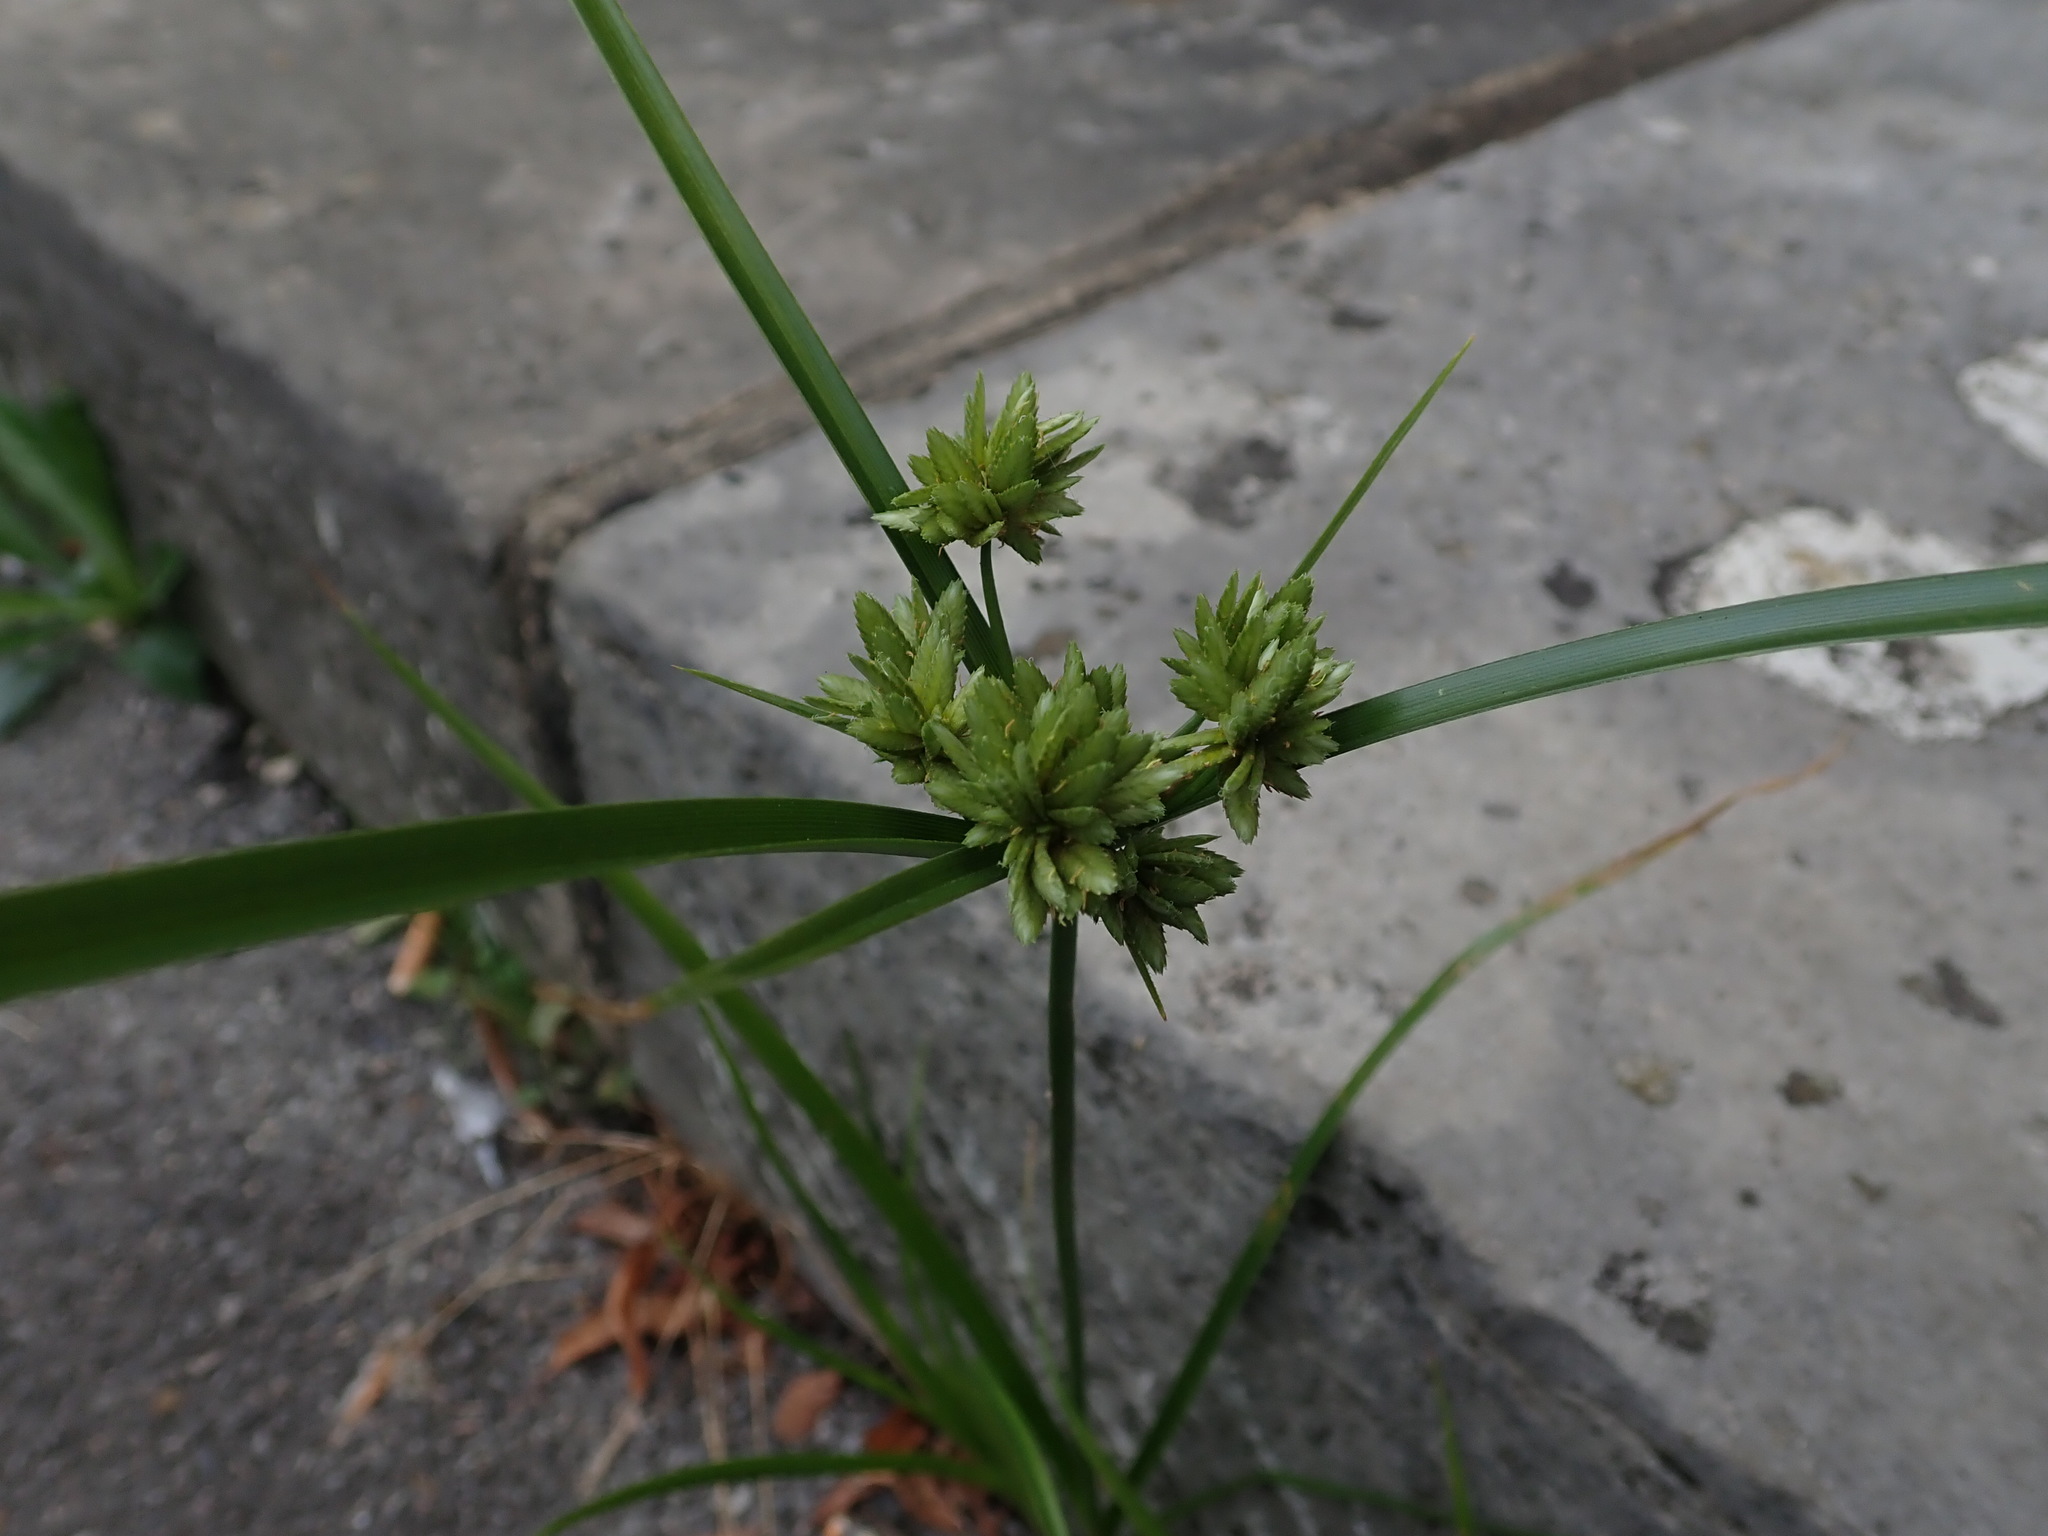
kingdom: Plantae
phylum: Tracheophyta
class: Liliopsida
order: Poales
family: Cyperaceae
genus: Cyperus
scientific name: Cyperus eragrostis
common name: Tall flatsedge
